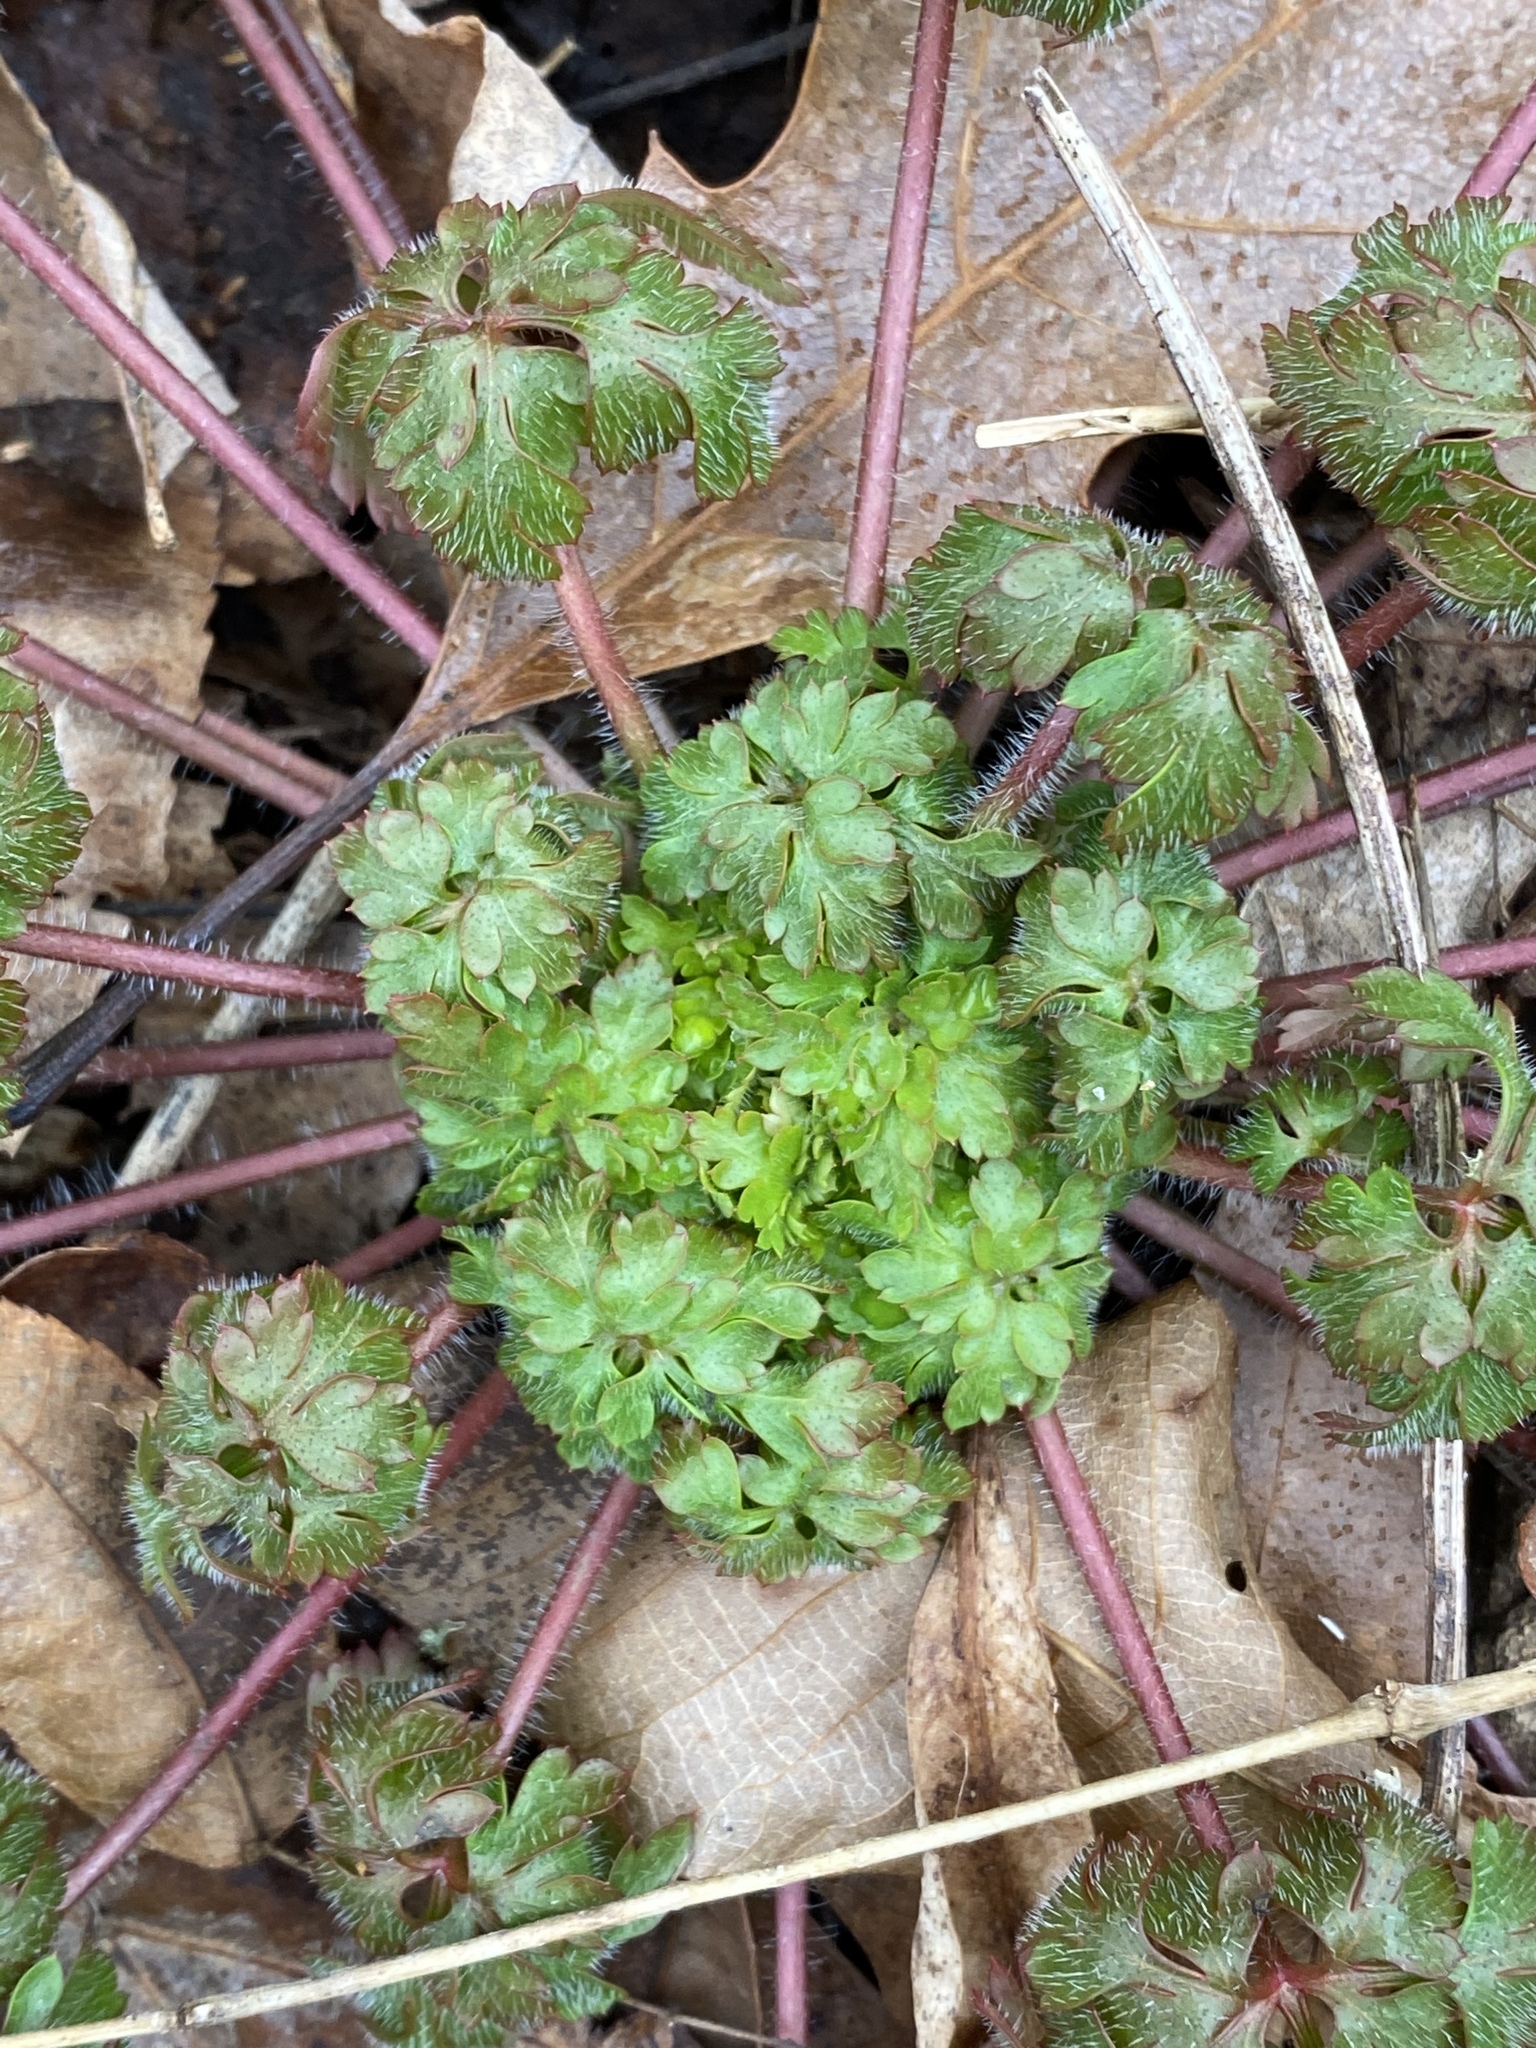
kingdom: Plantae
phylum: Tracheophyta
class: Magnoliopsida
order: Geraniales
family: Geraniaceae
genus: Geranium
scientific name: Geranium robertianum
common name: Herb-robert
